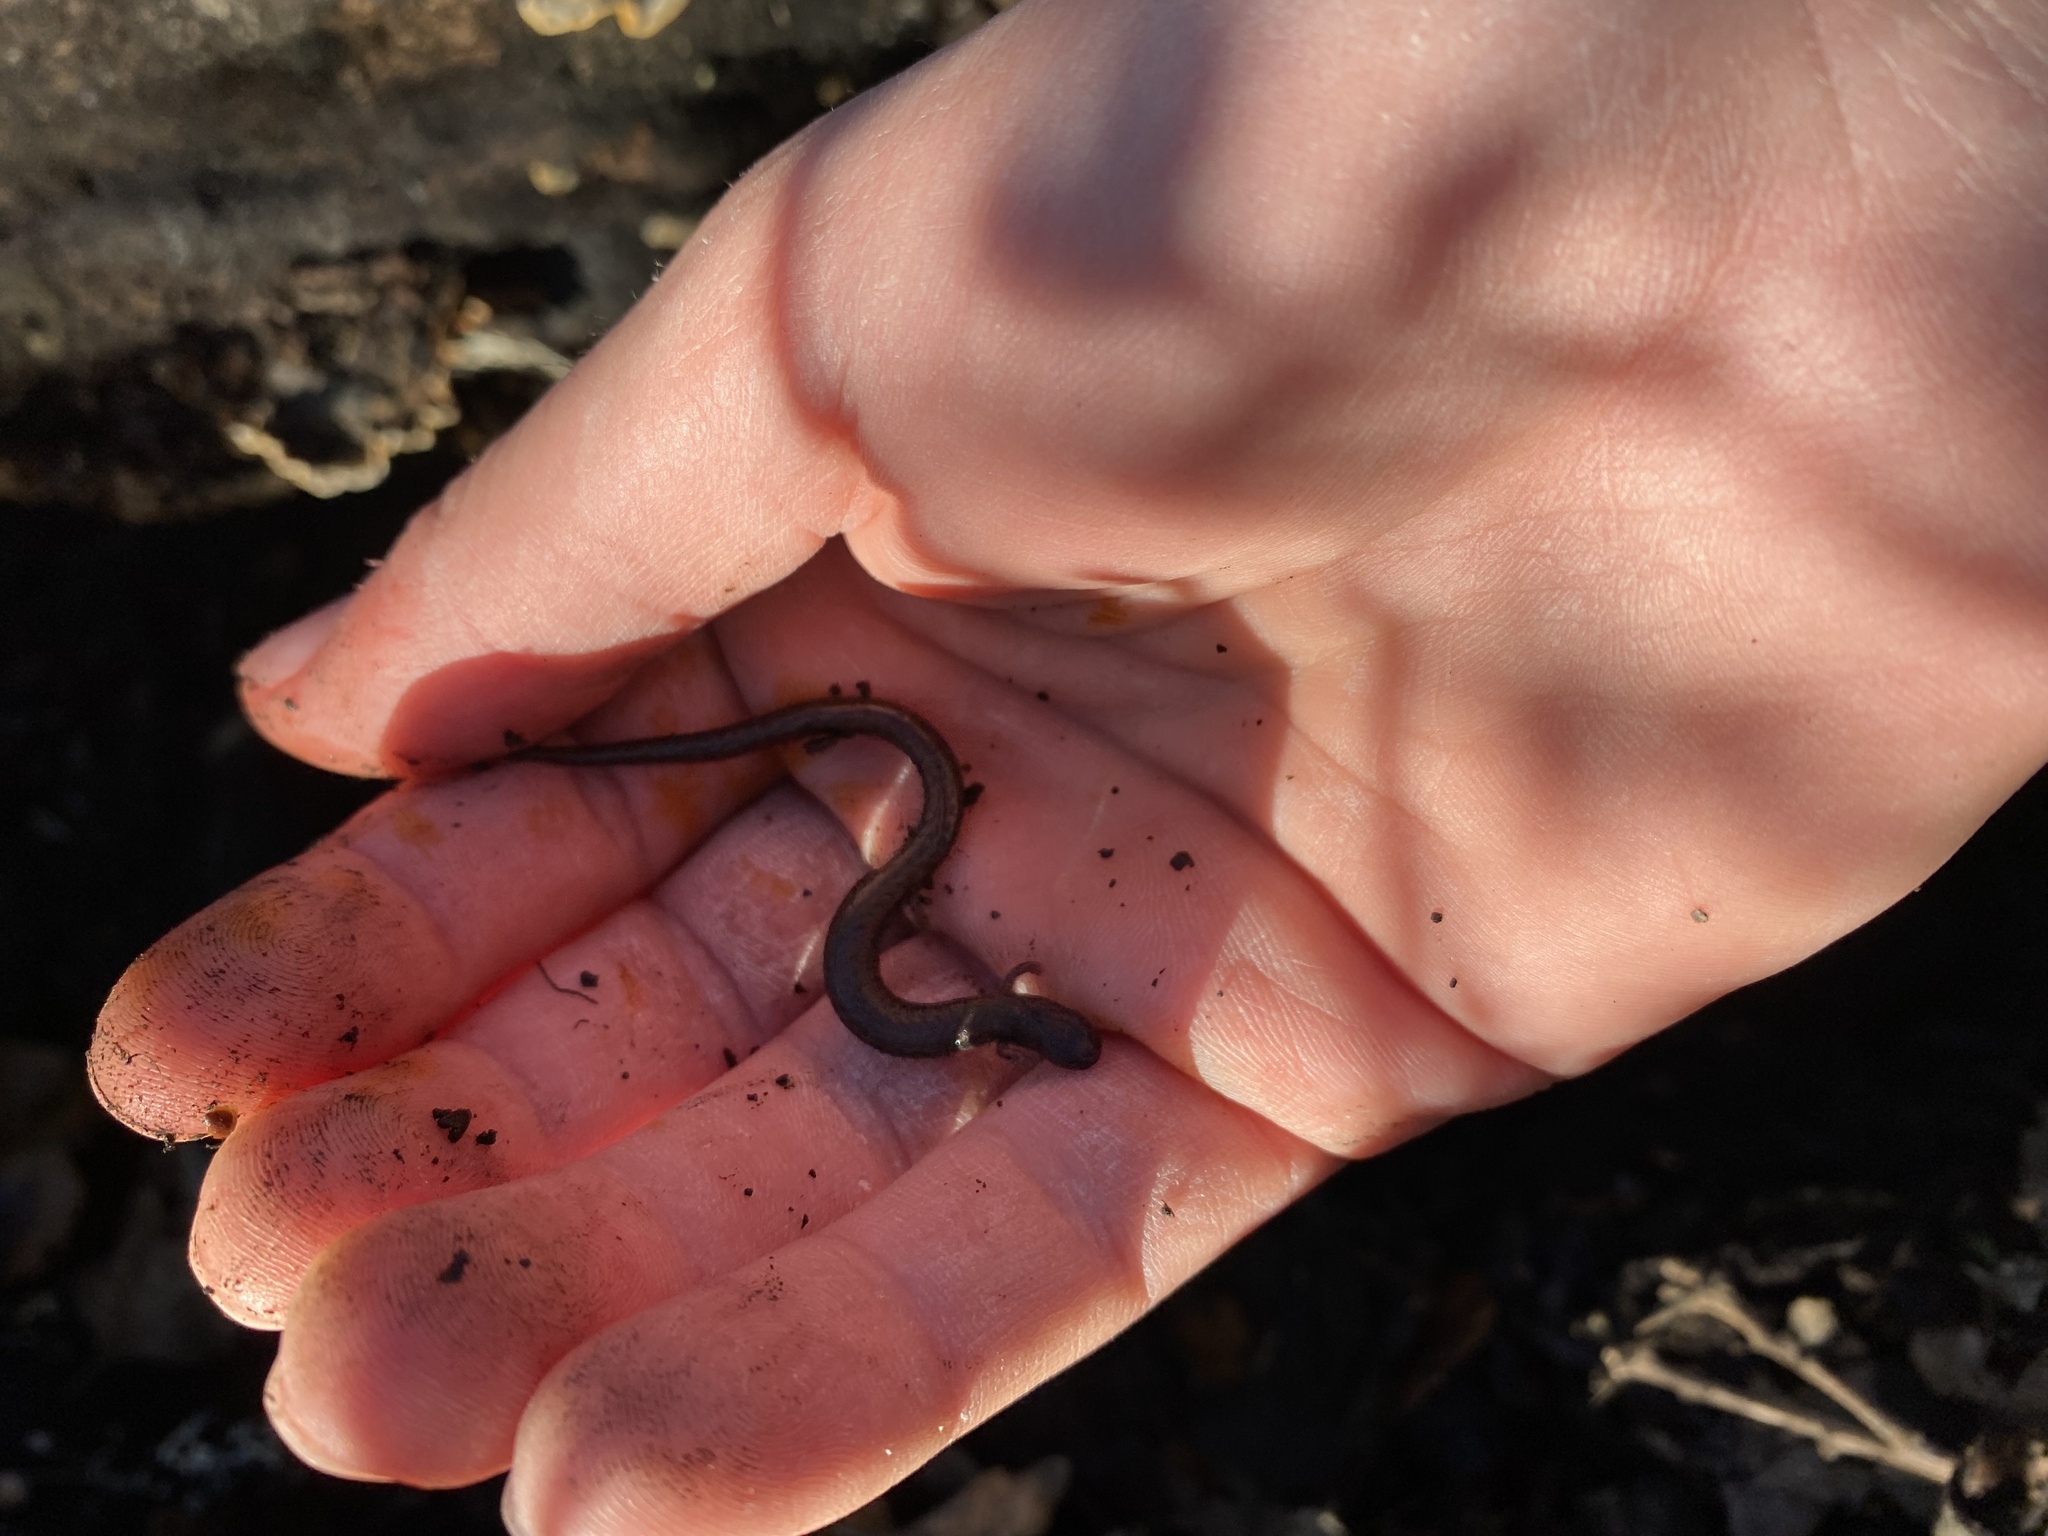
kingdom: Animalia
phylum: Chordata
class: Amphibia
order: Caudata
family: Plethodontidae
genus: Batrachoseps
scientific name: Batrachoseps attenuatus
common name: California slender salamander
